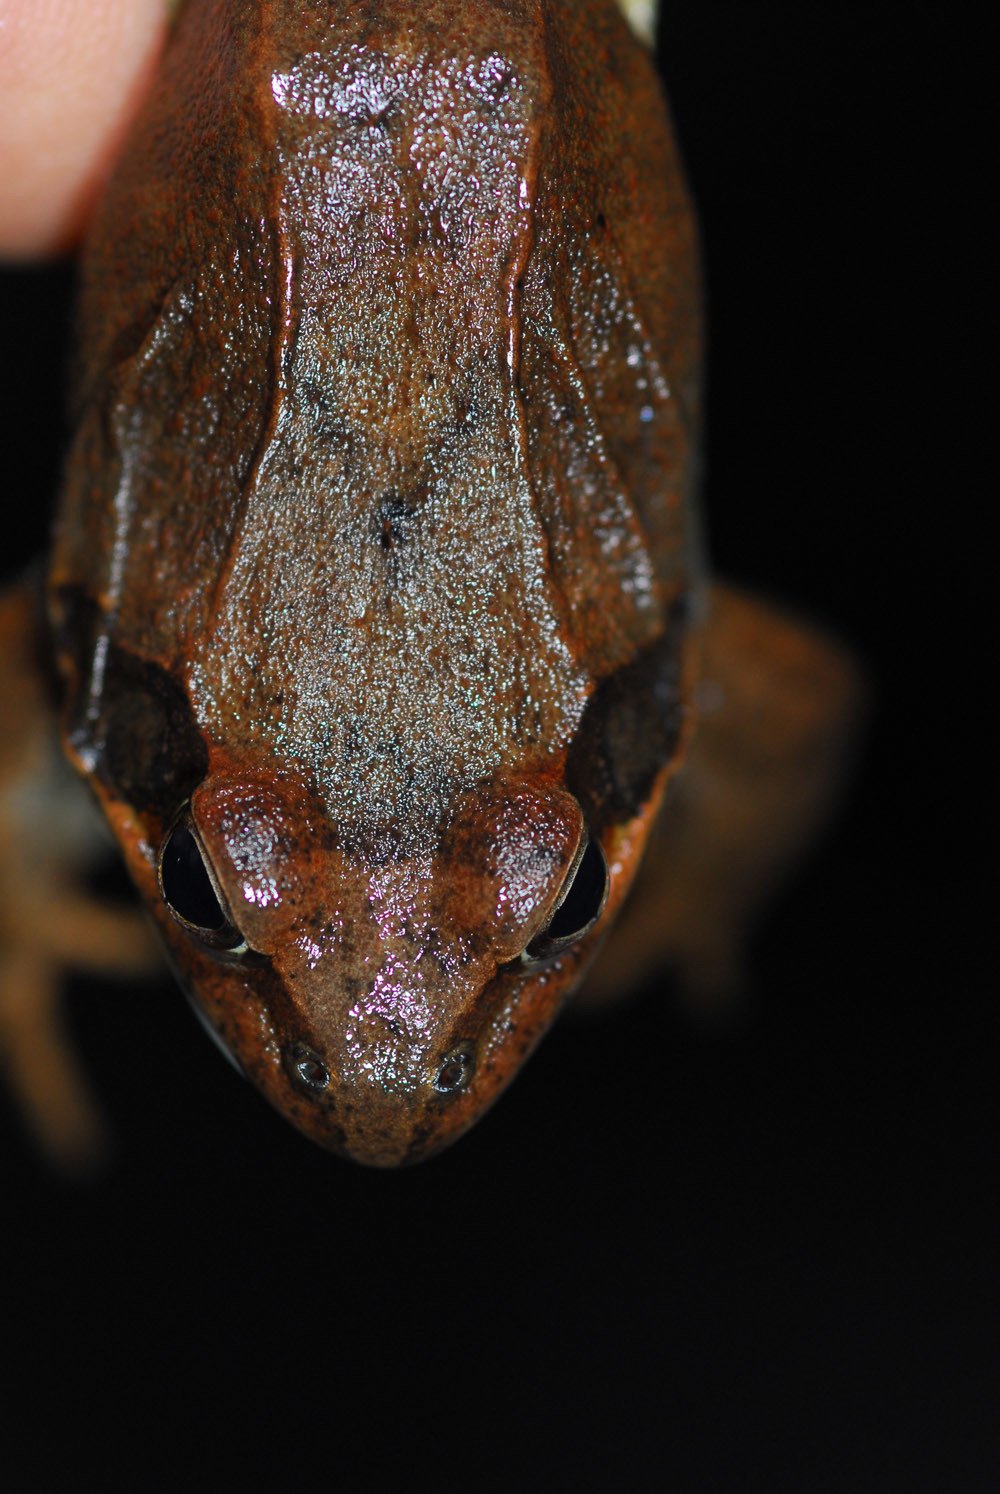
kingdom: Animalia
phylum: Chordata
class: Amphibia
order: Anura
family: Ranidae
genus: Rana
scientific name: Rana uenoi
